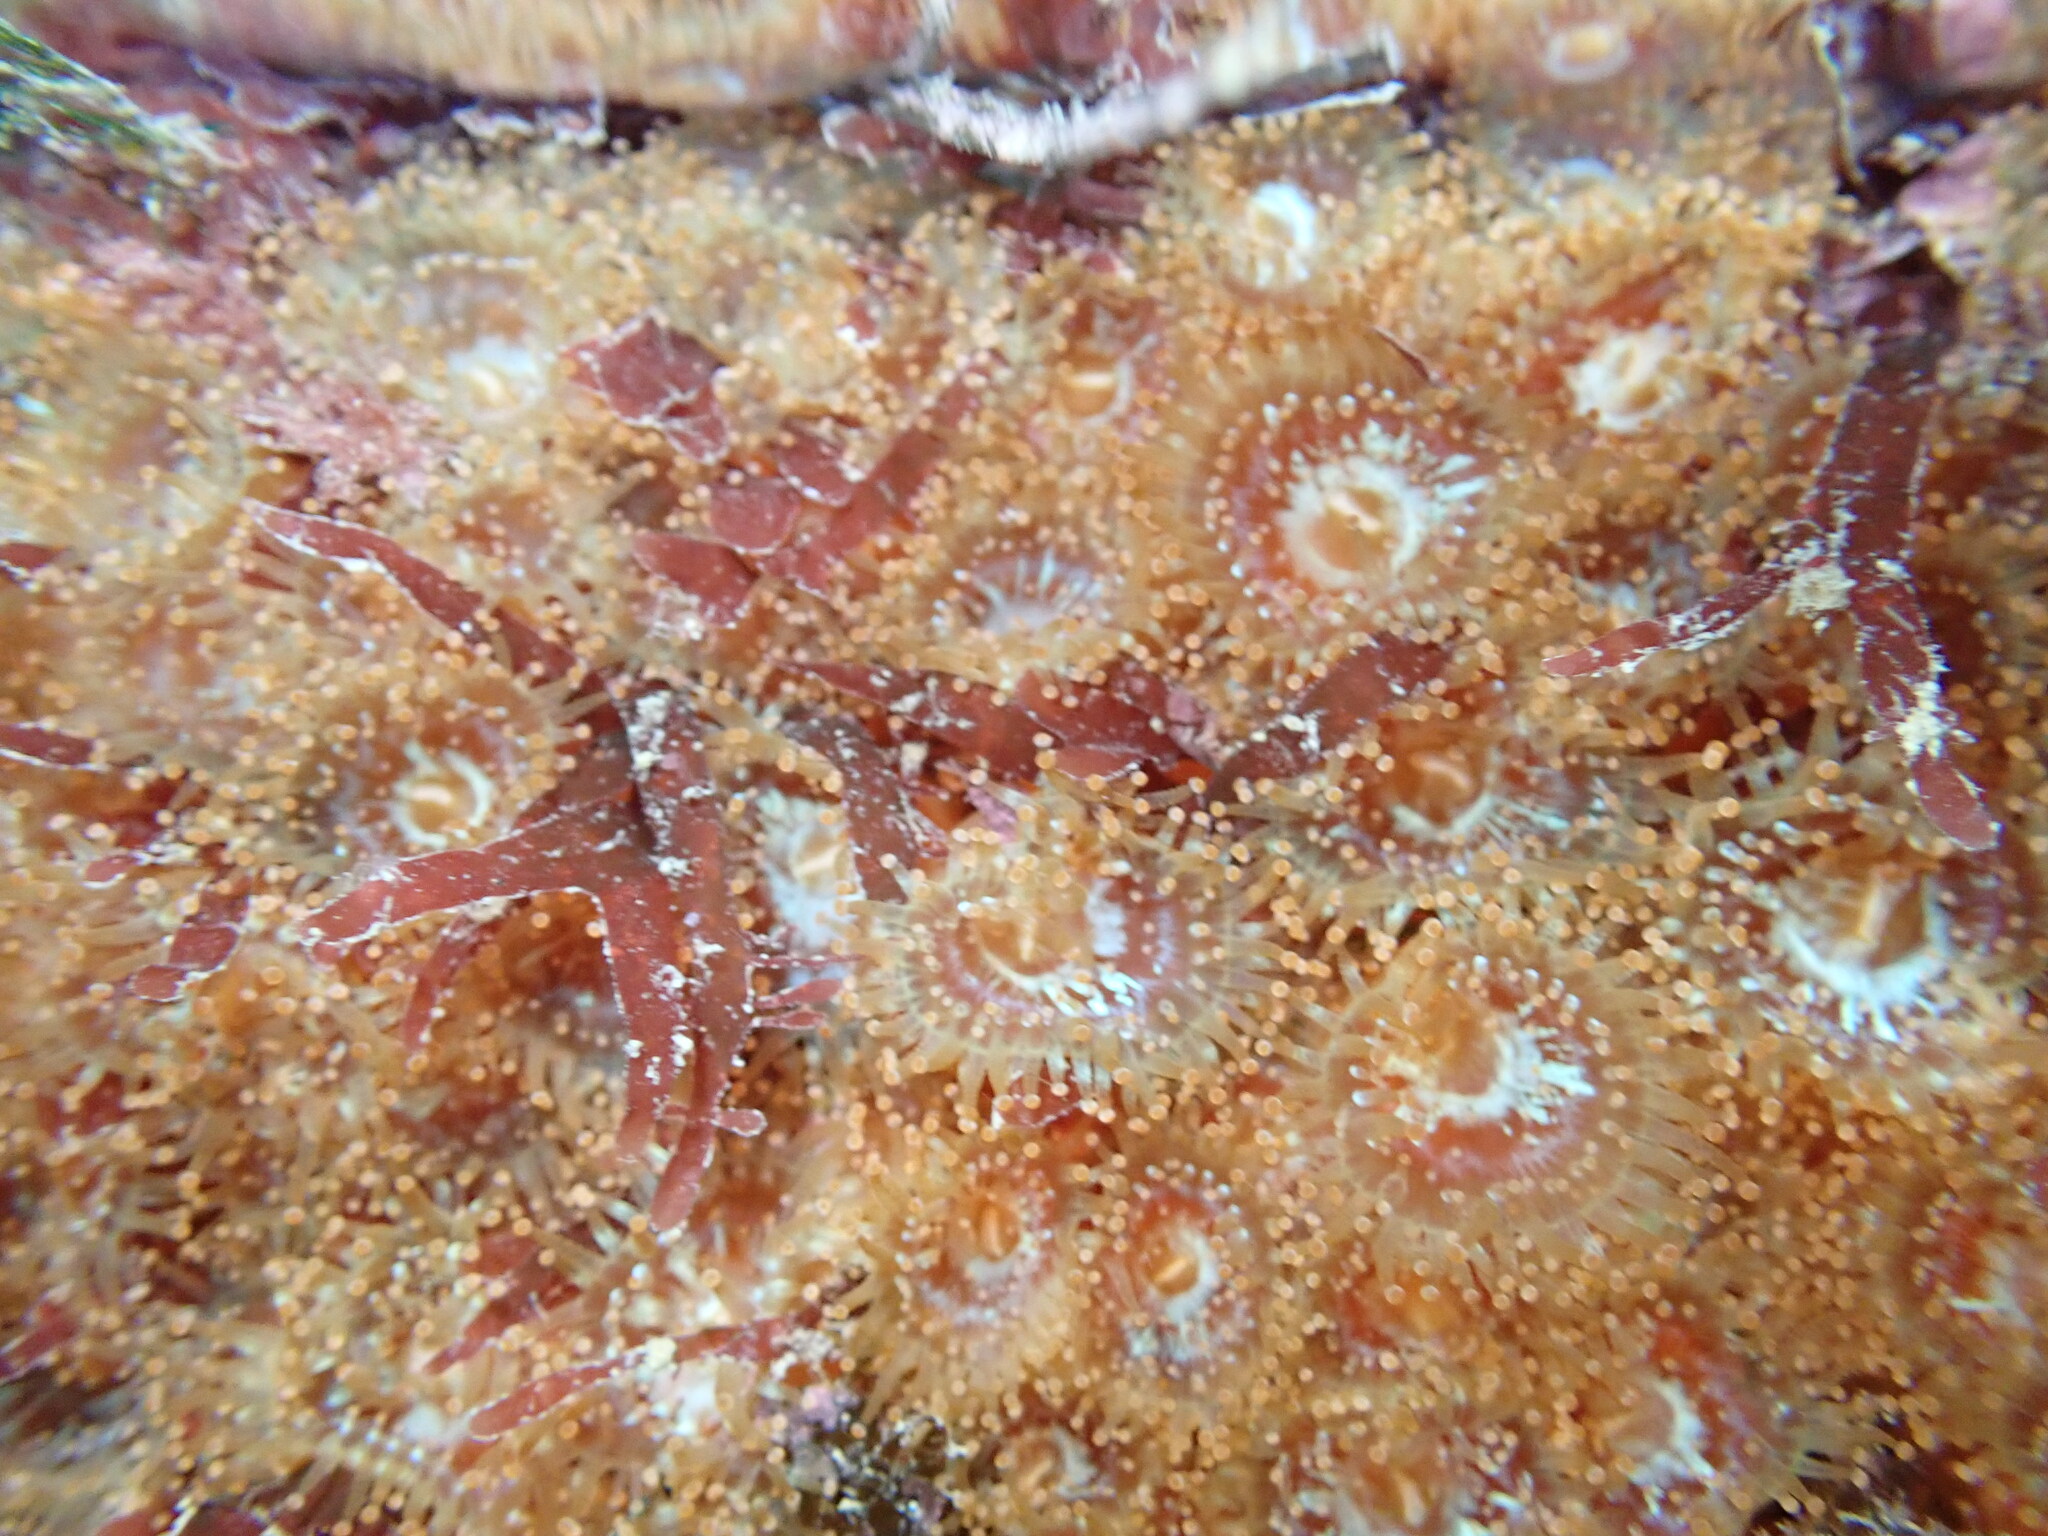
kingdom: Animalia
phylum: Cnidaria
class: Anthozoa
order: Corallimorpharia
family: Corallimorphidae
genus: Corynactis
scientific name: Corynactis australis
